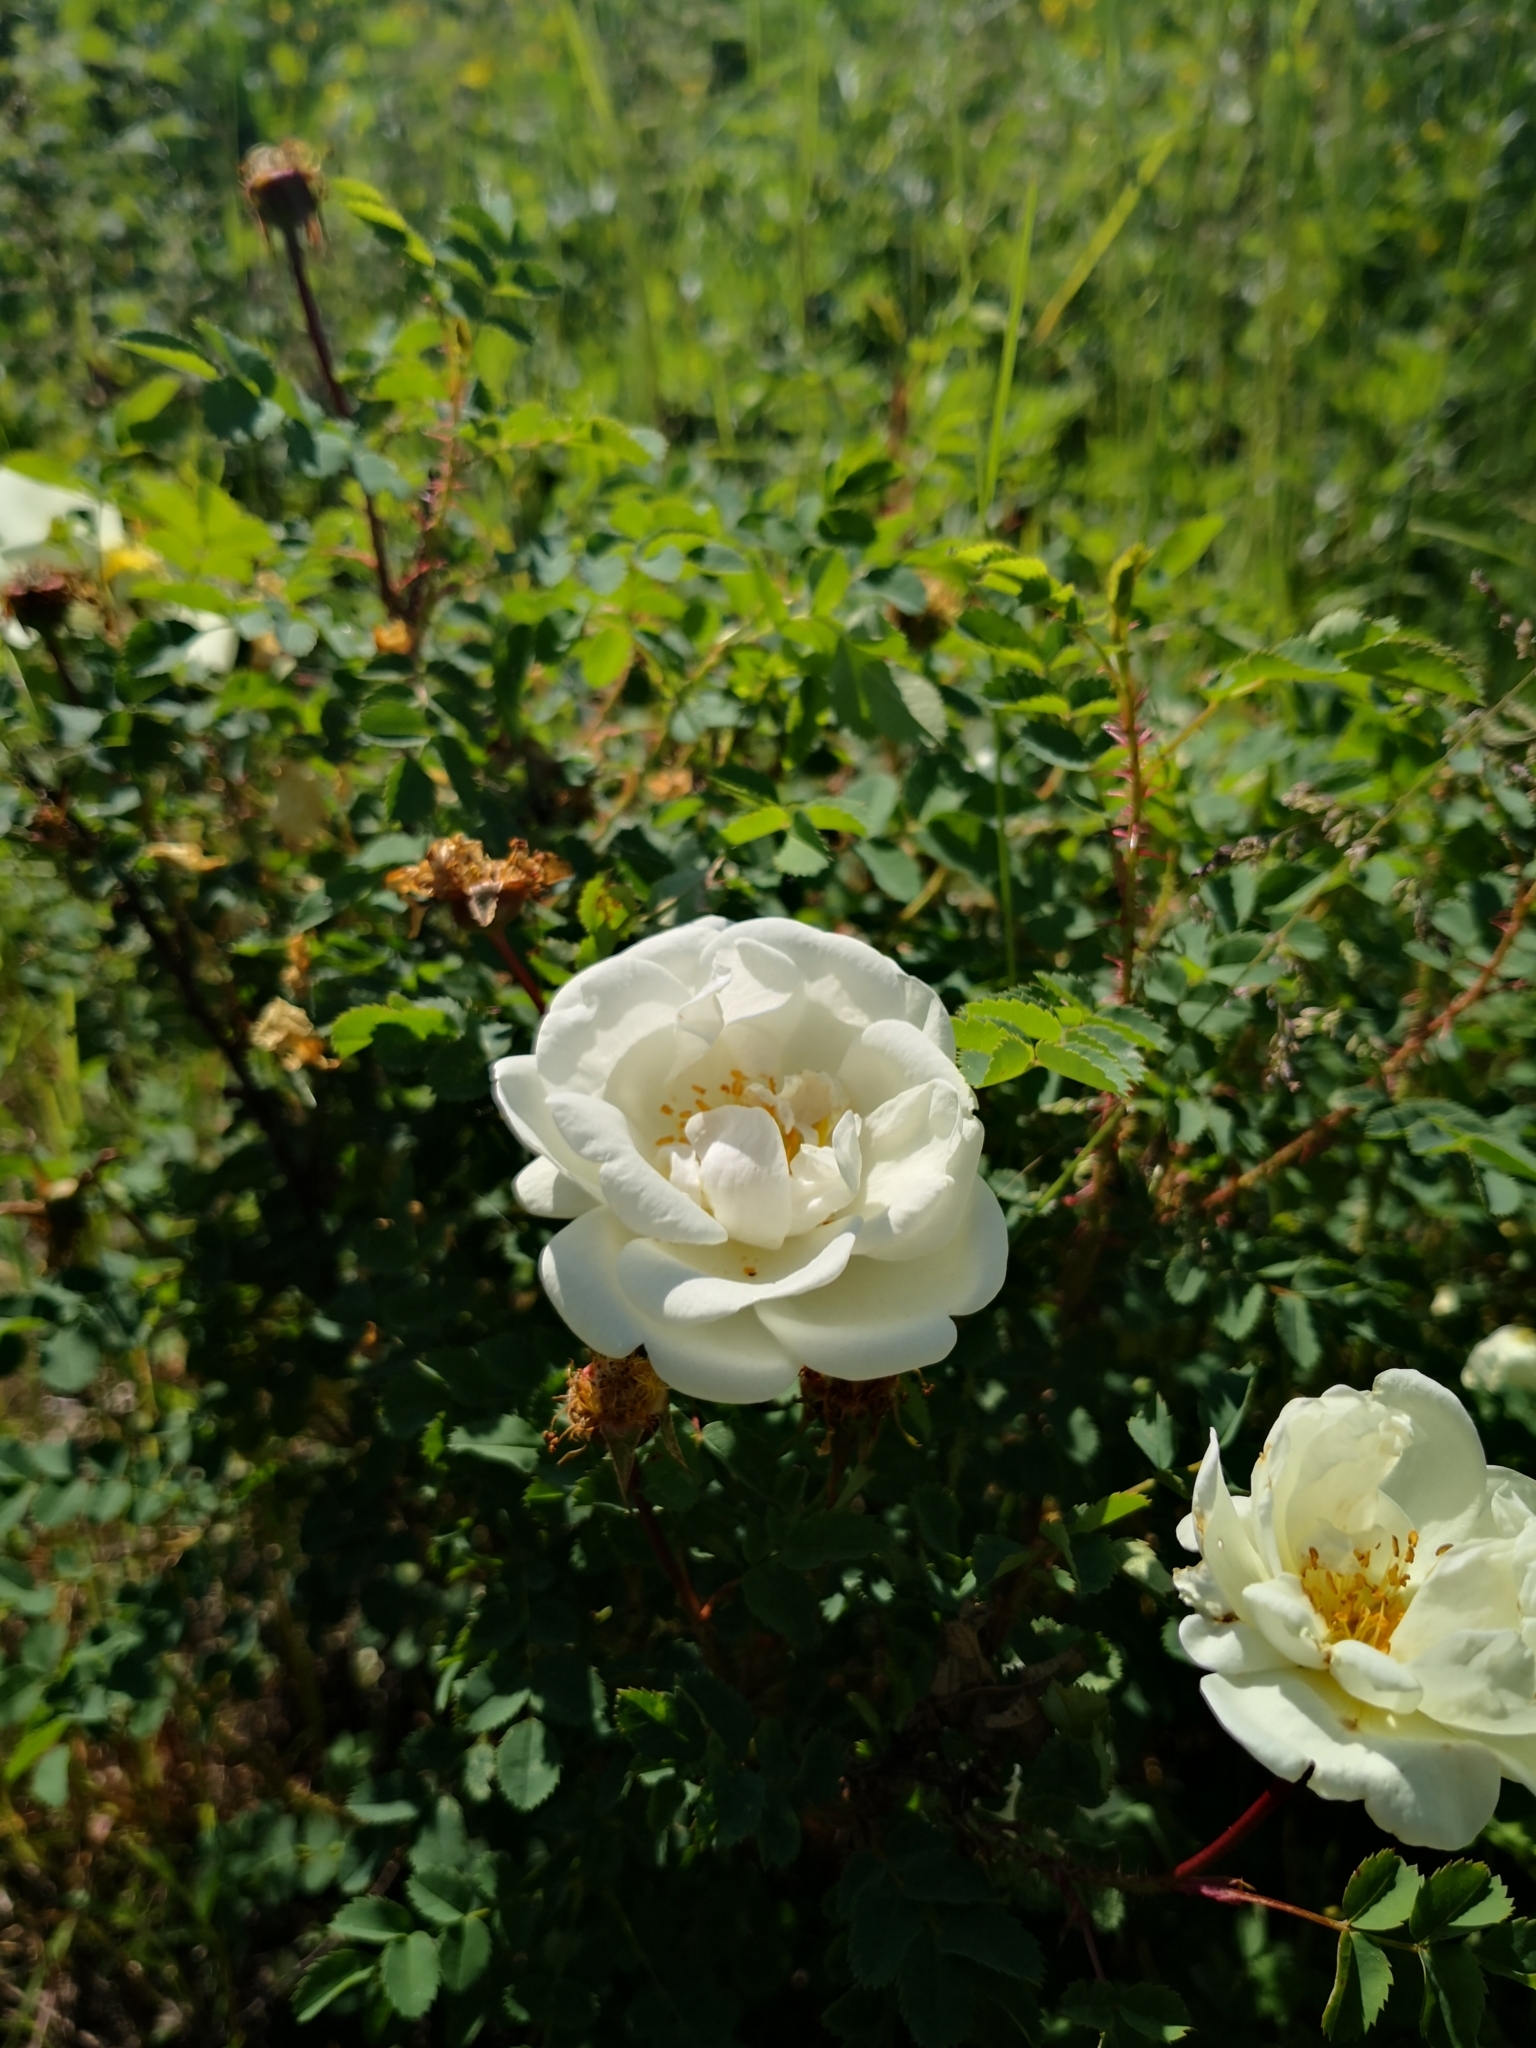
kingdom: Plantae
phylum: Tracheophyta
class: Magnoliopsida
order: Rosales
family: Rosaceae
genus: Rosa
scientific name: Rosa spinosissima
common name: Burnet rose
